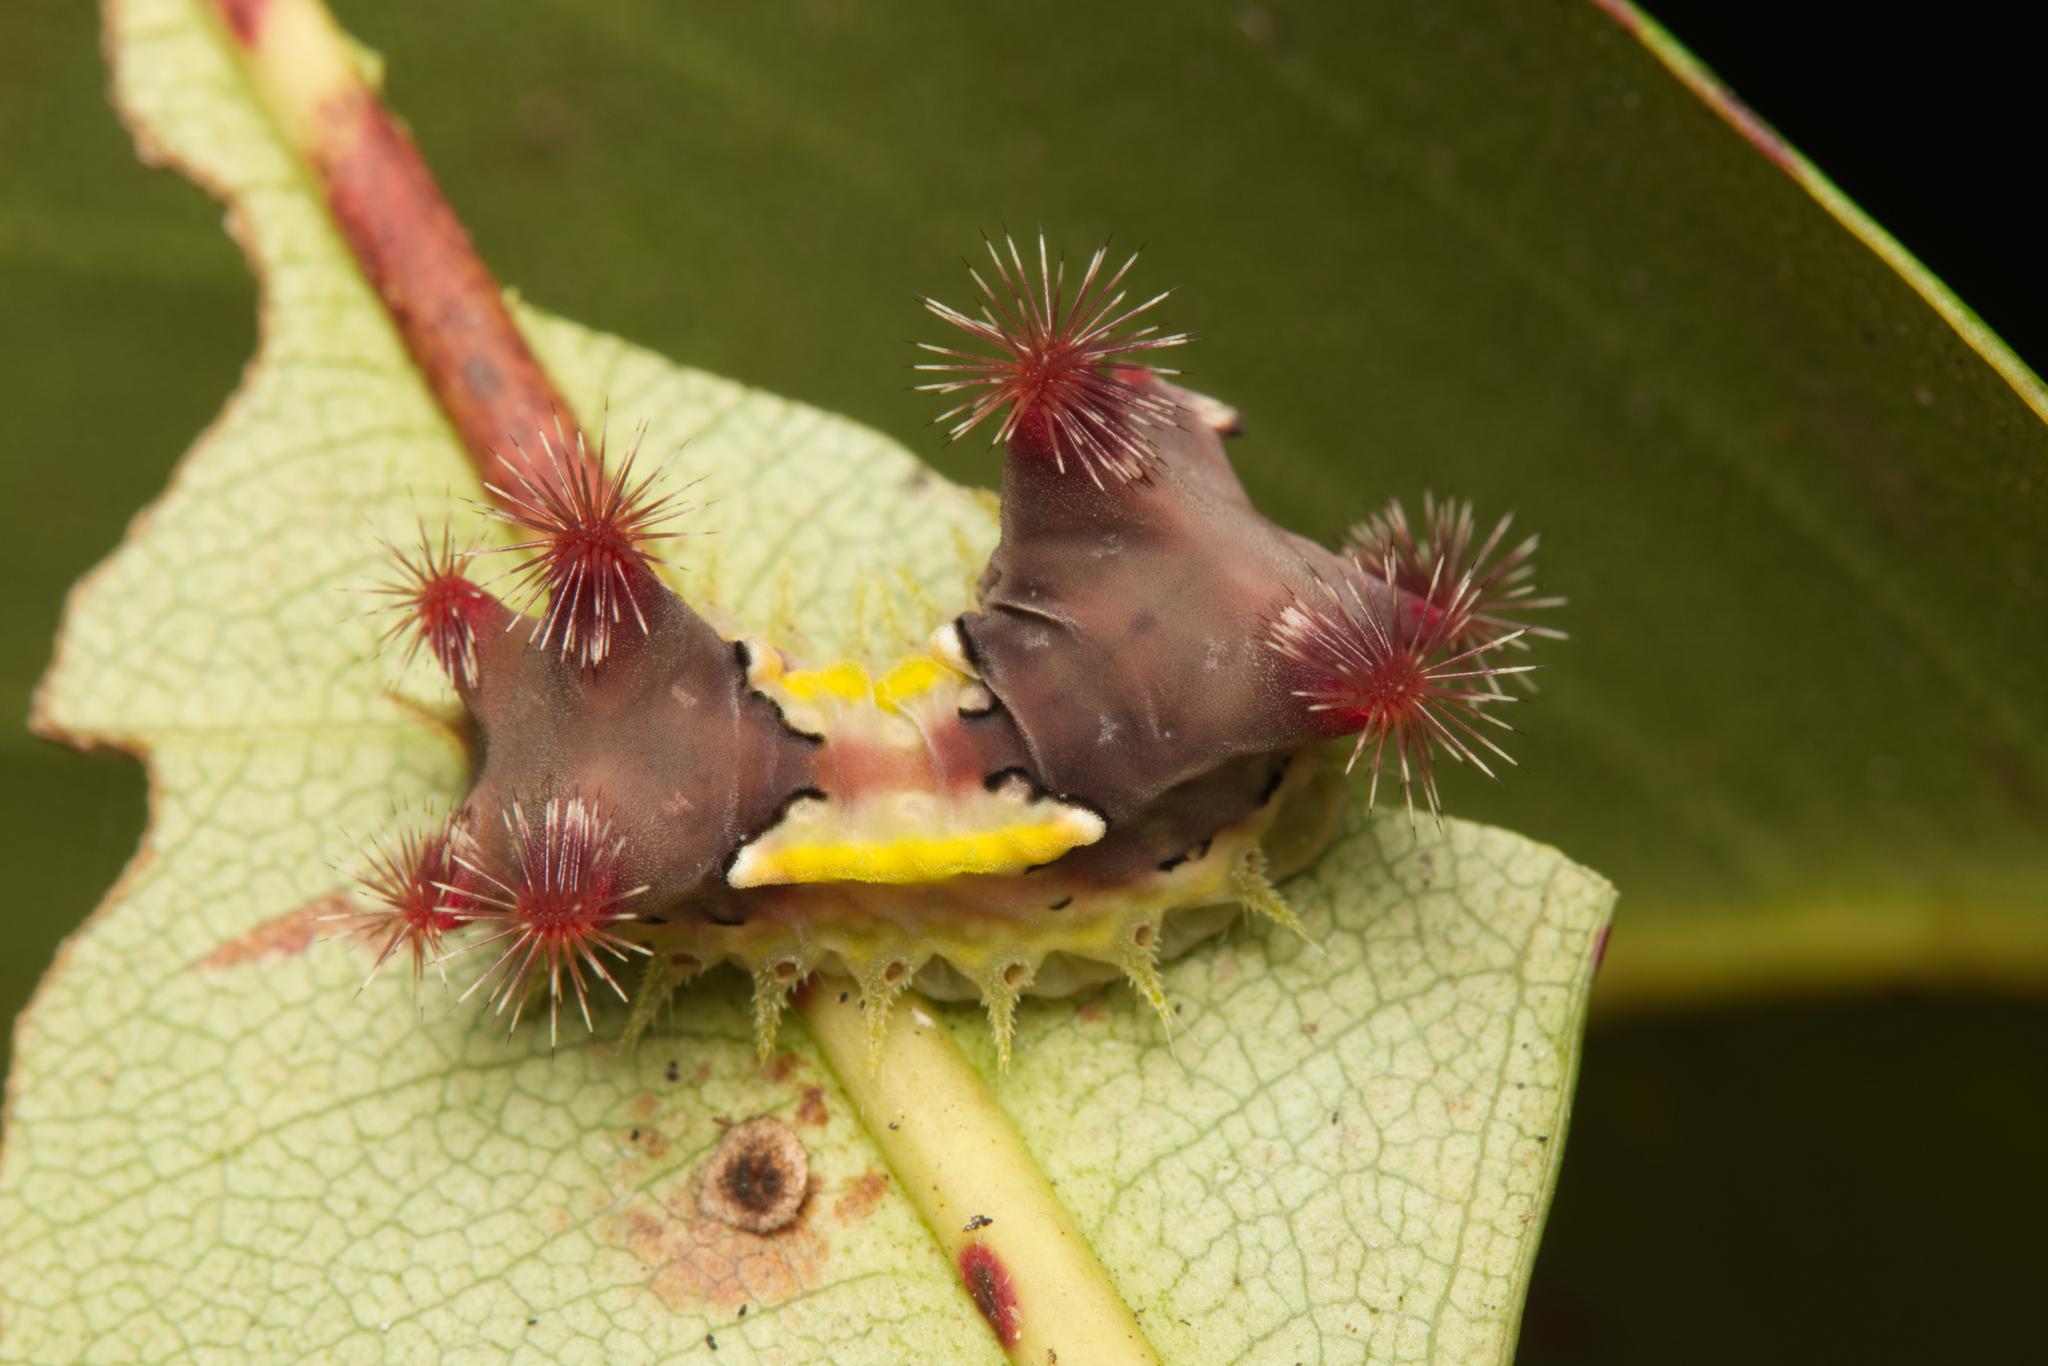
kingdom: Animalia
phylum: Arthropoda
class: Insecta
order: Lepidoptera
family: Limacodidae
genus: Doratifera
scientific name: Doratifera vulnerans
